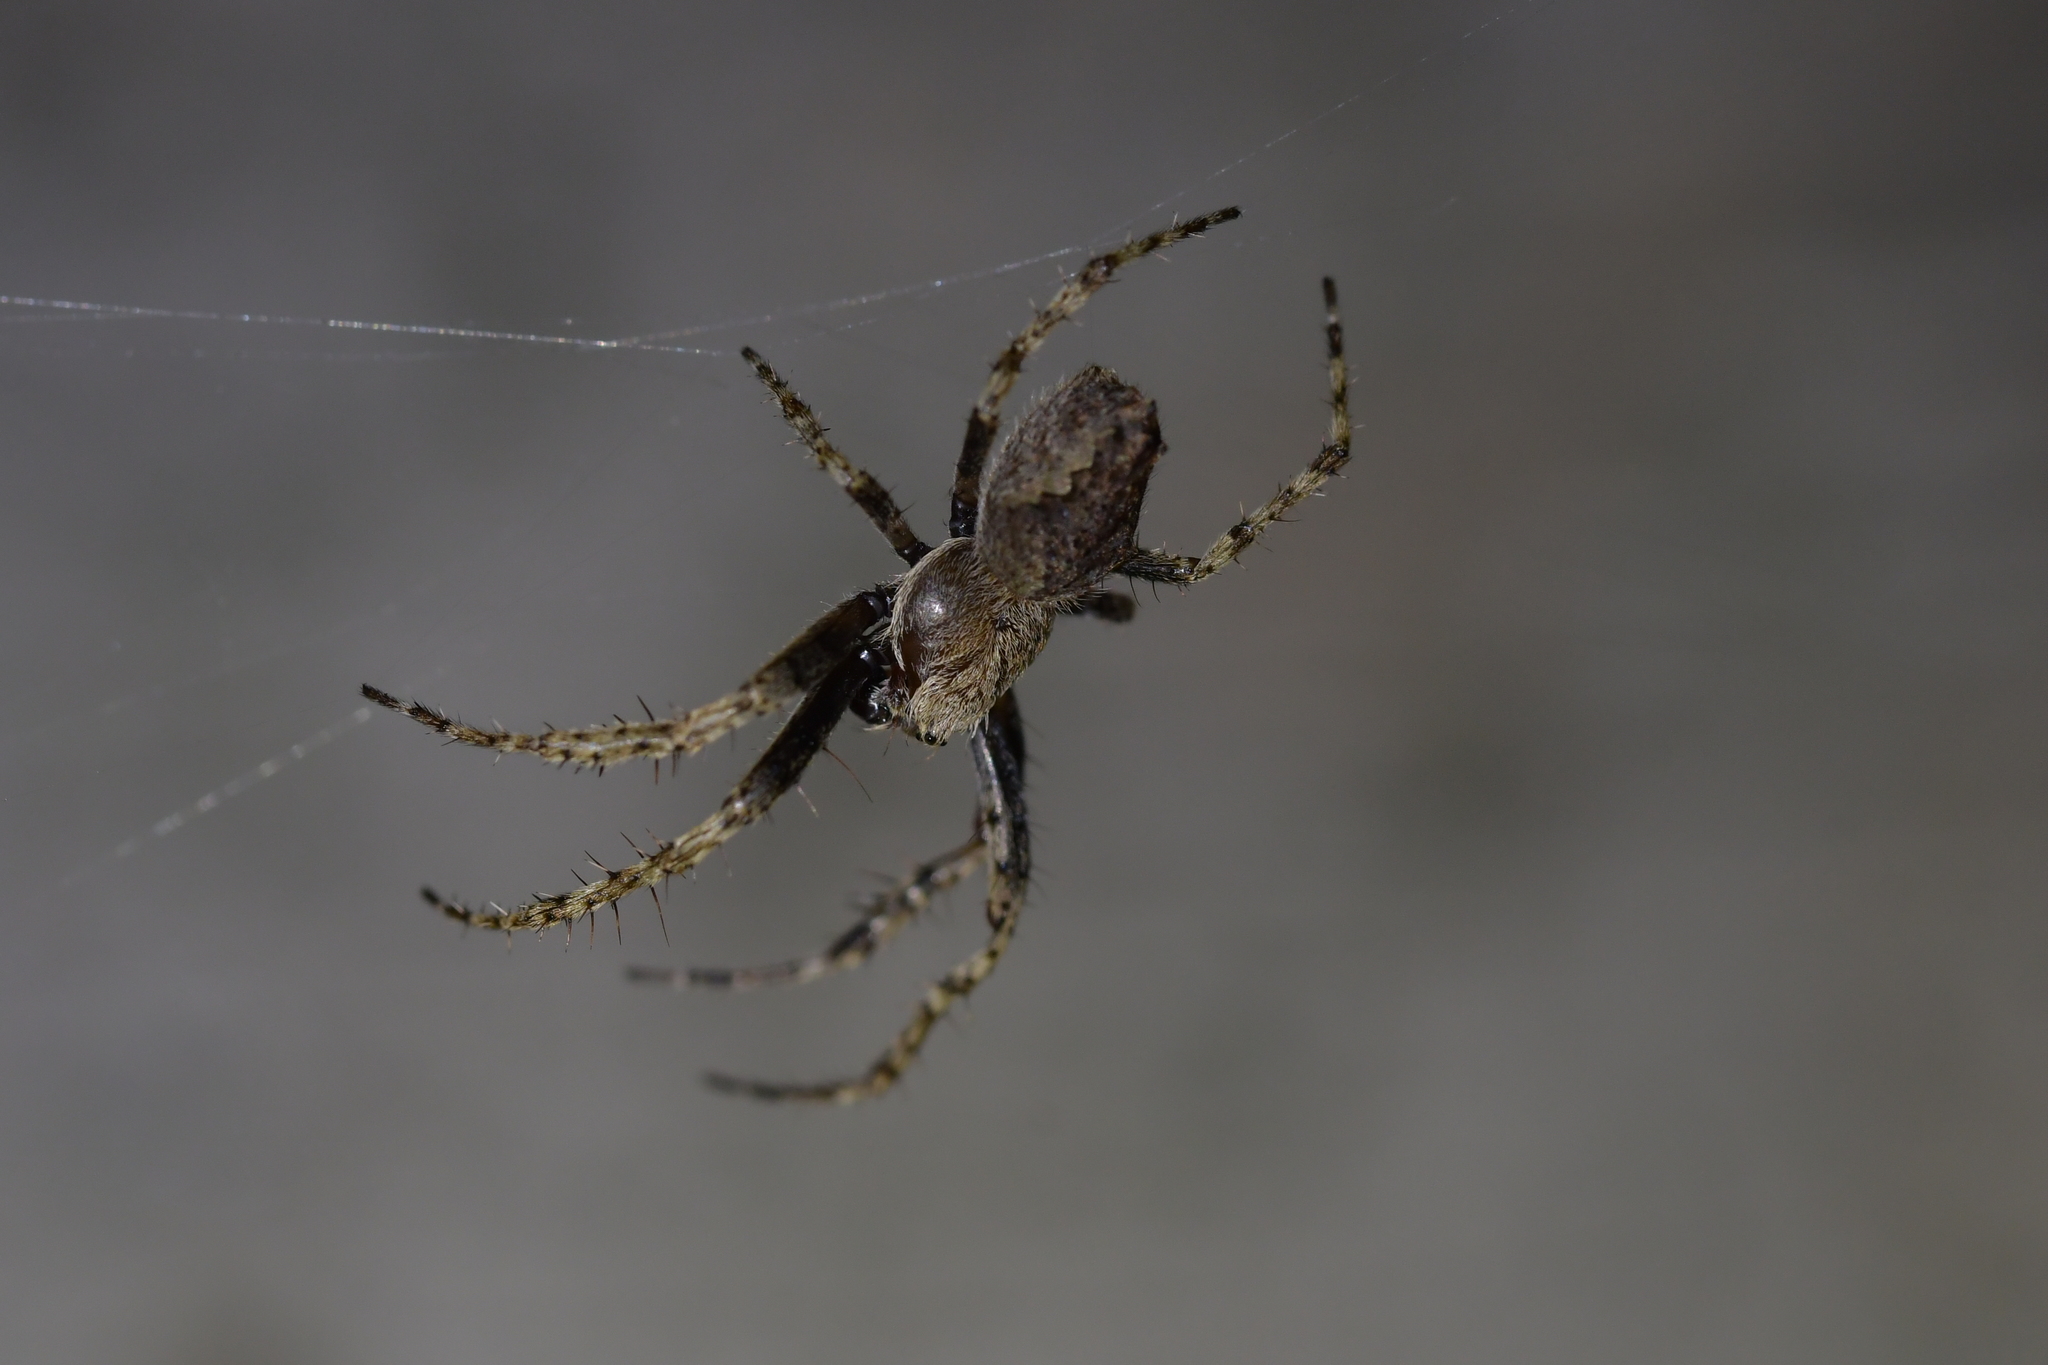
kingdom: Animalia
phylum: Arthropoda
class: Arachnida
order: Araneae
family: Araneidae
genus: Eriophora
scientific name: Eriophora pustulosa
